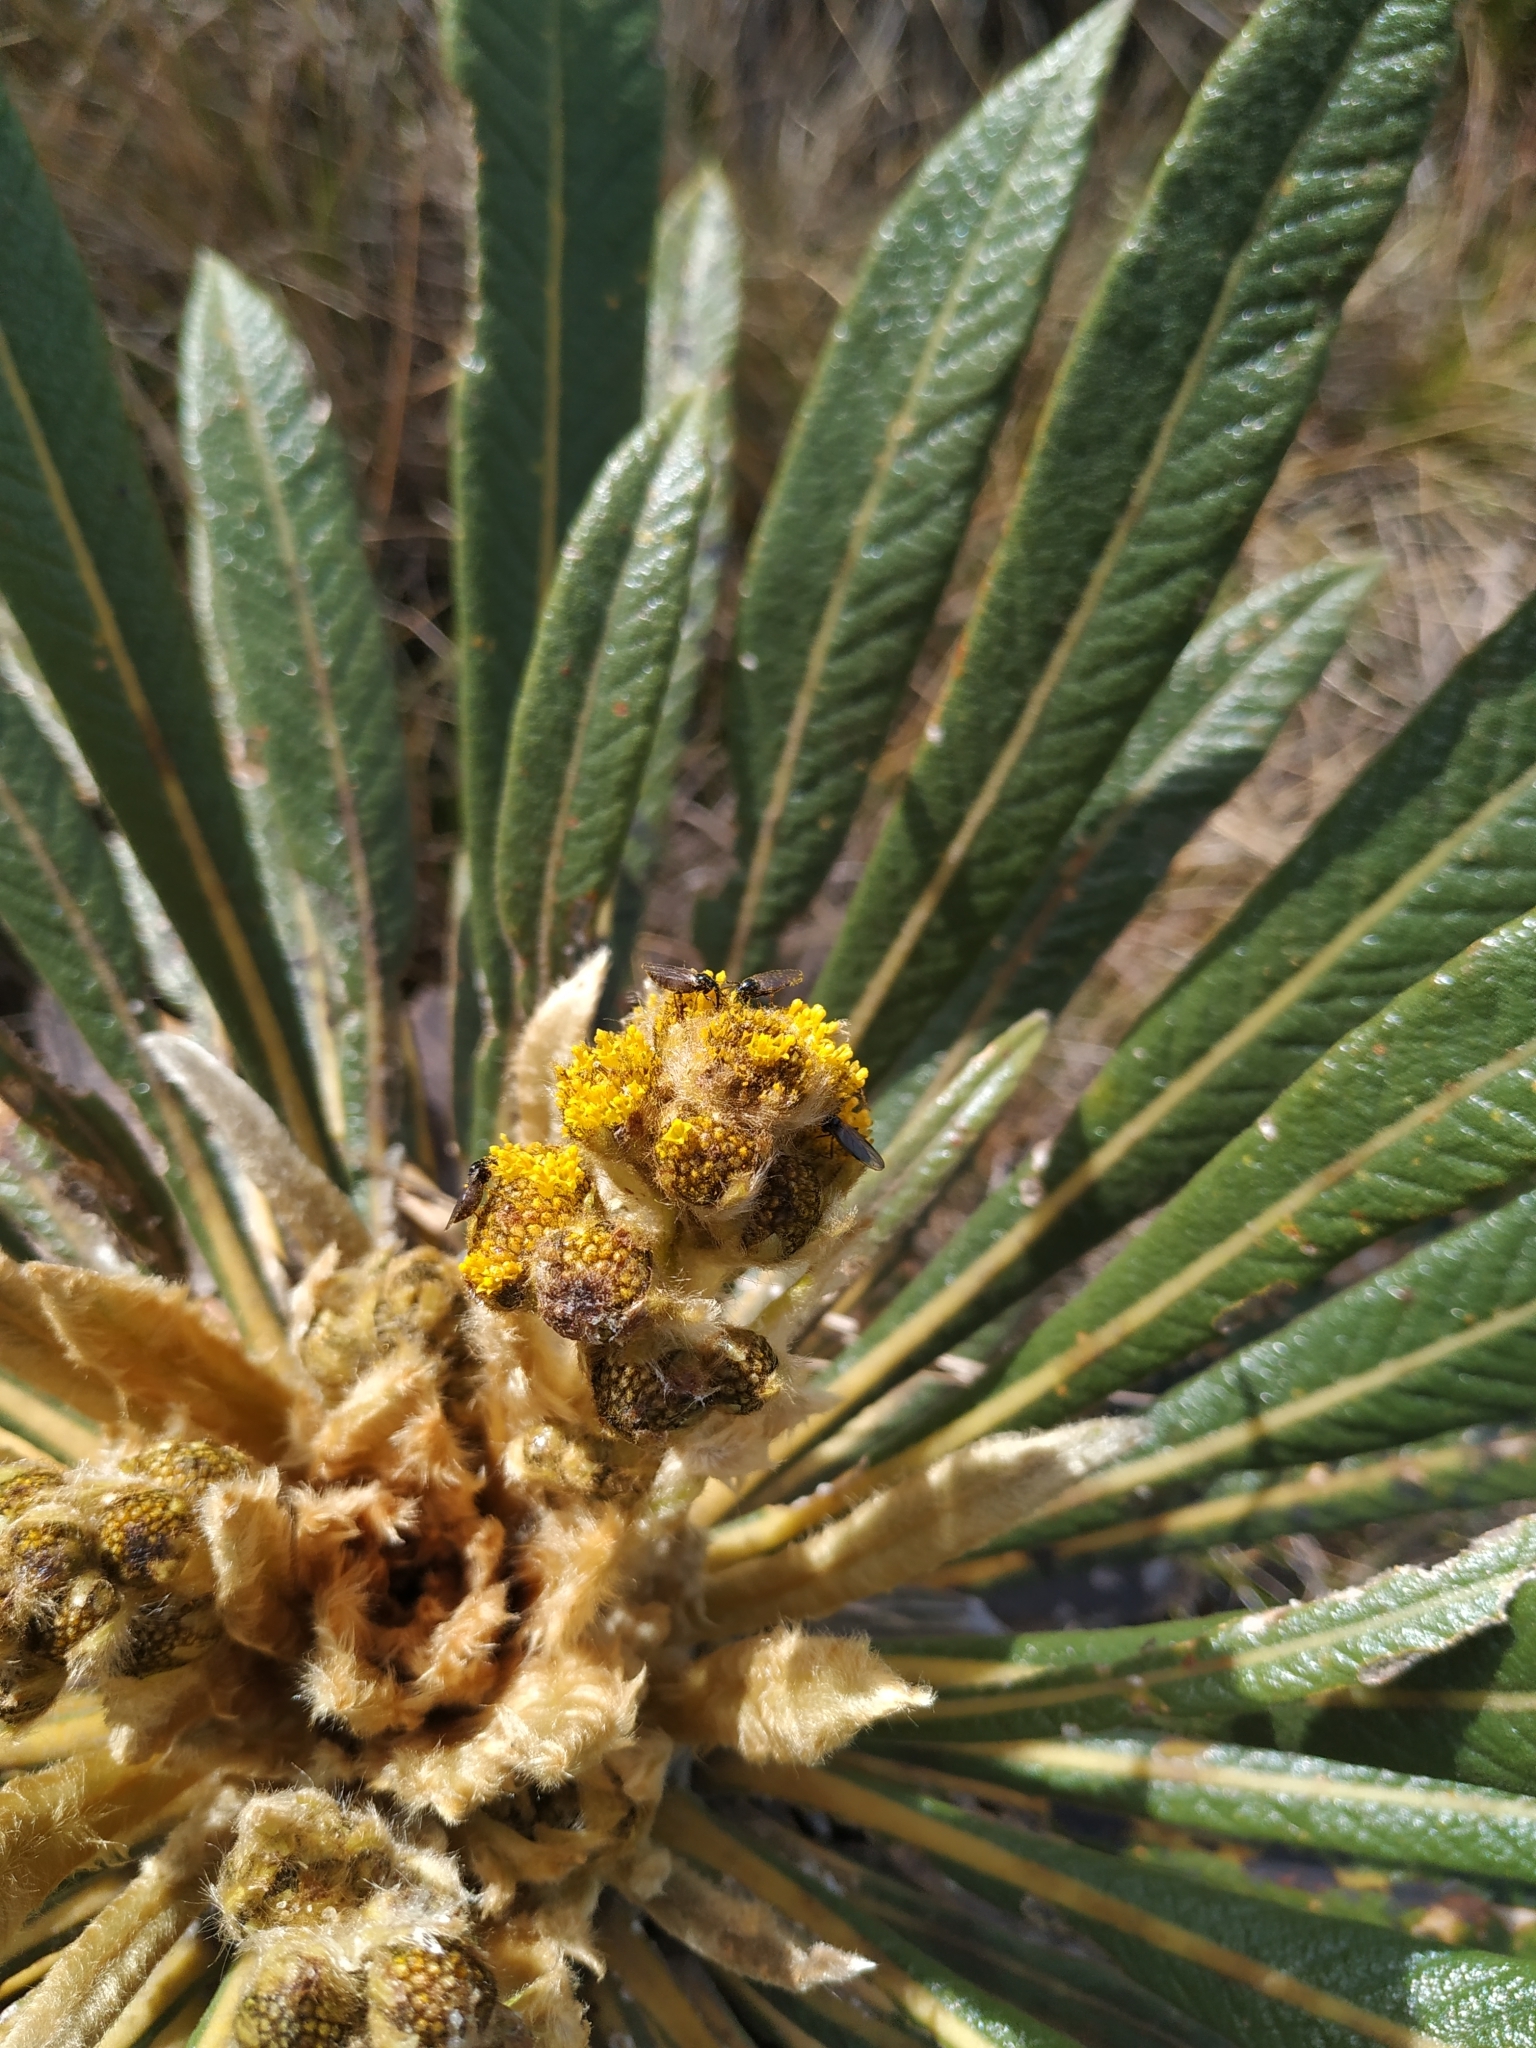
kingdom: Plantae
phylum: Tracheophyta
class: Magnoliopsida
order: Asterales
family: Asteraceae
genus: Espeletia
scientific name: Espeletia guacharaca
